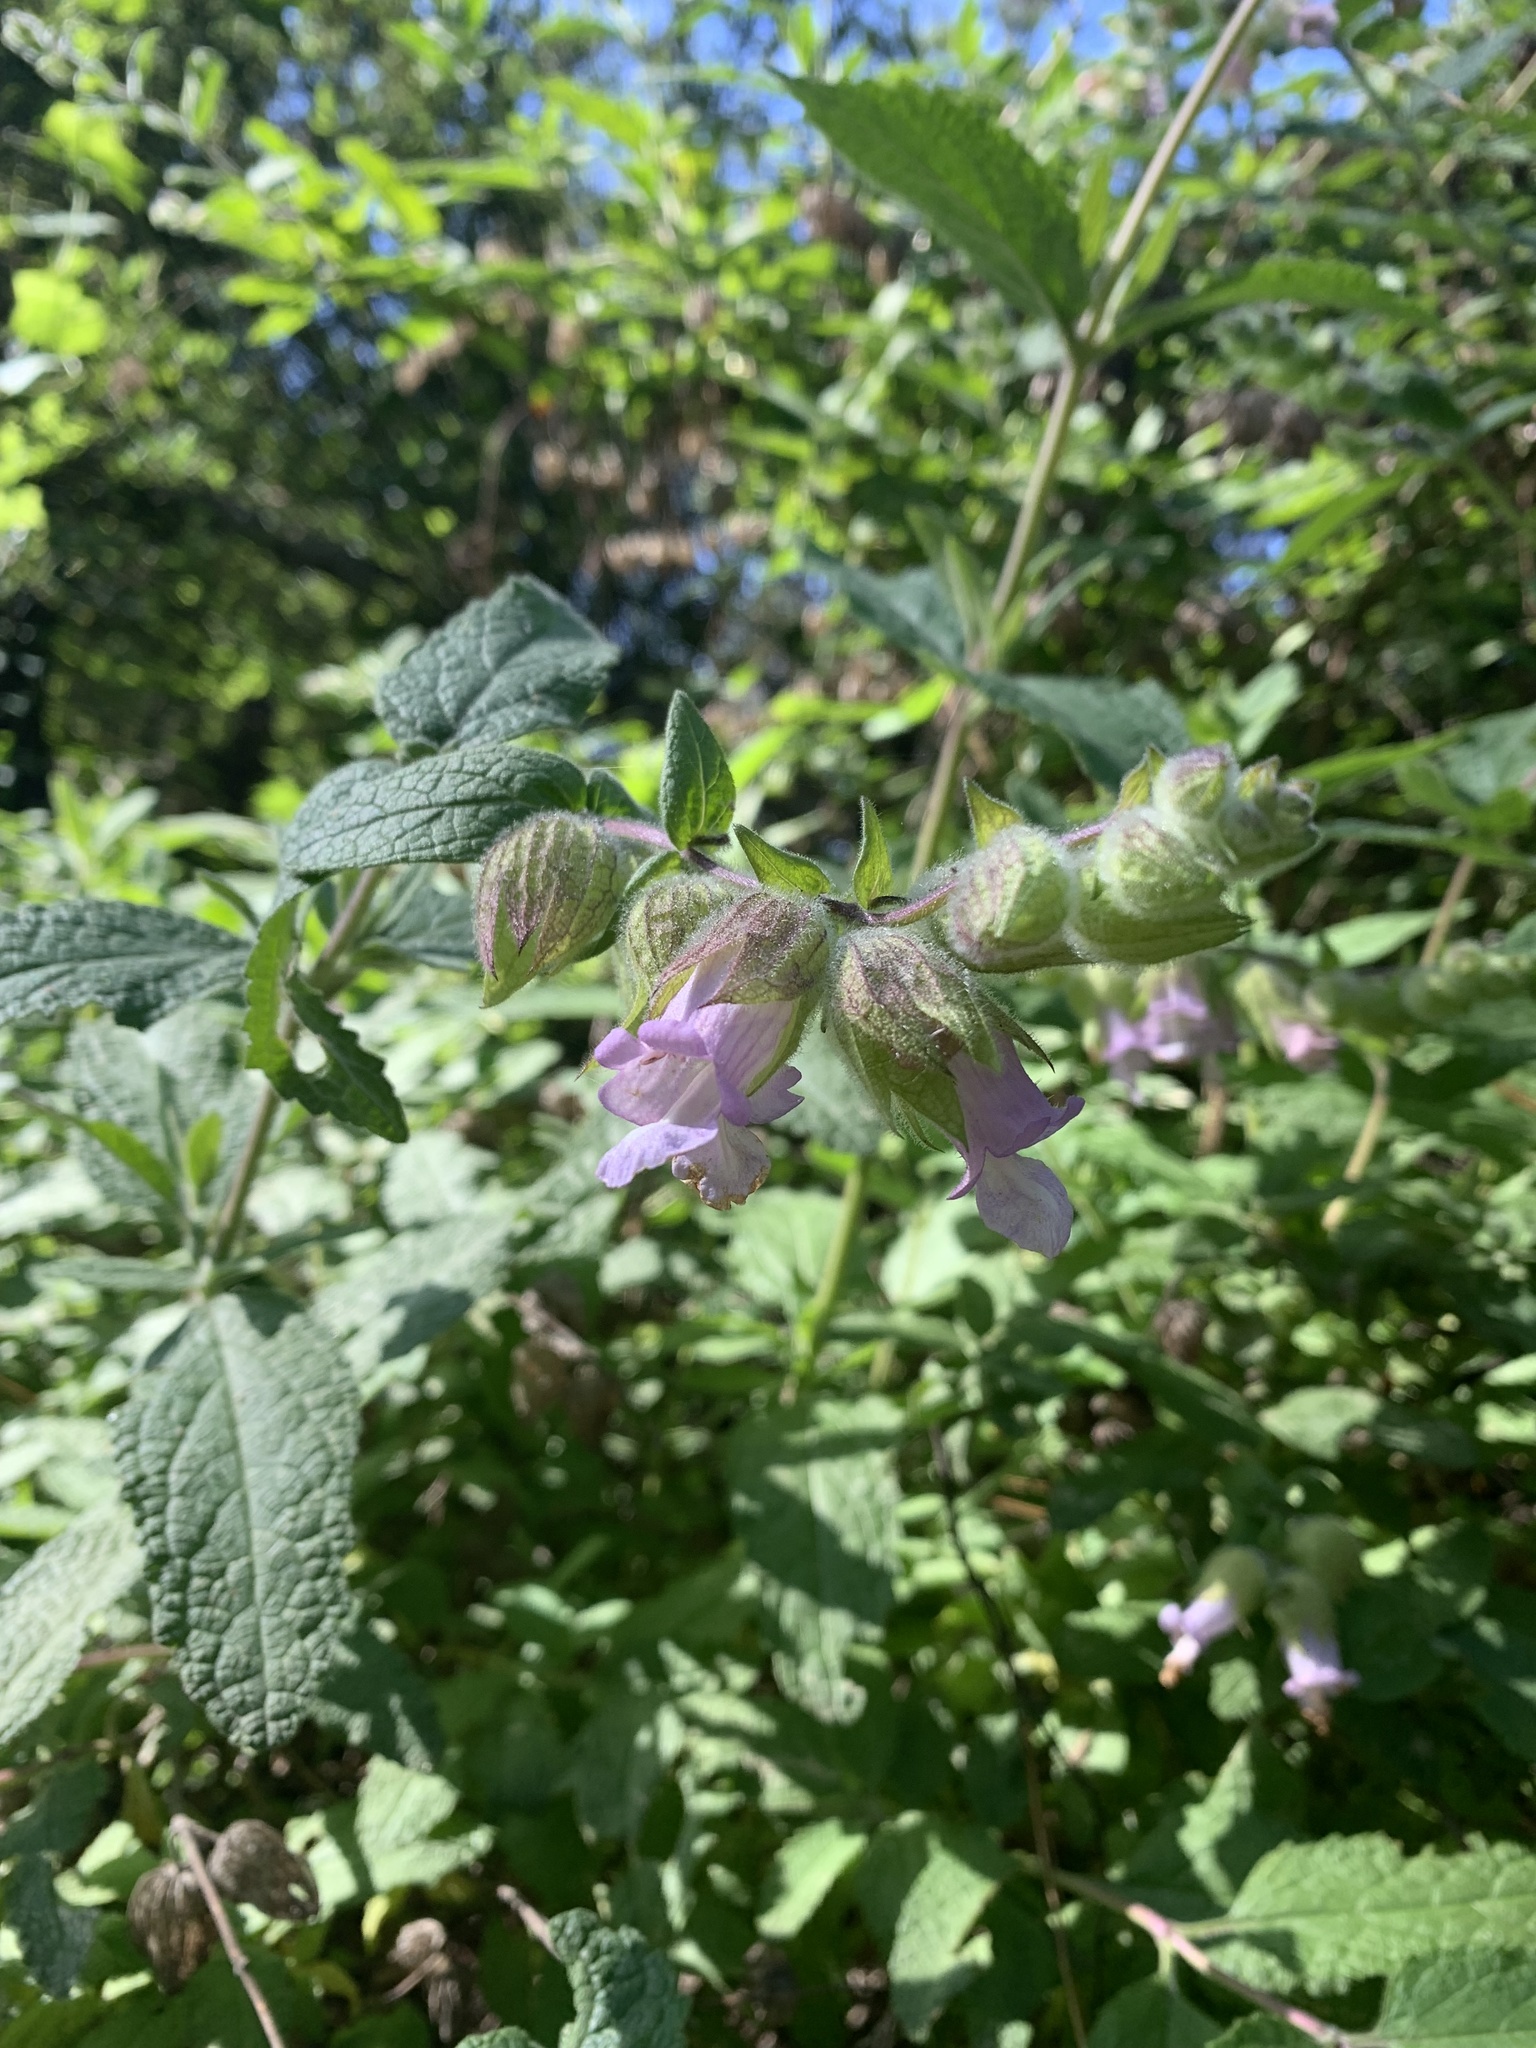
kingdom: Plantae
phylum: Tracheophyta
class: Magnoliopsida
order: Lamiales
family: Lamiaceae
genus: Lepechinia
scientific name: Lepechinia calycina
